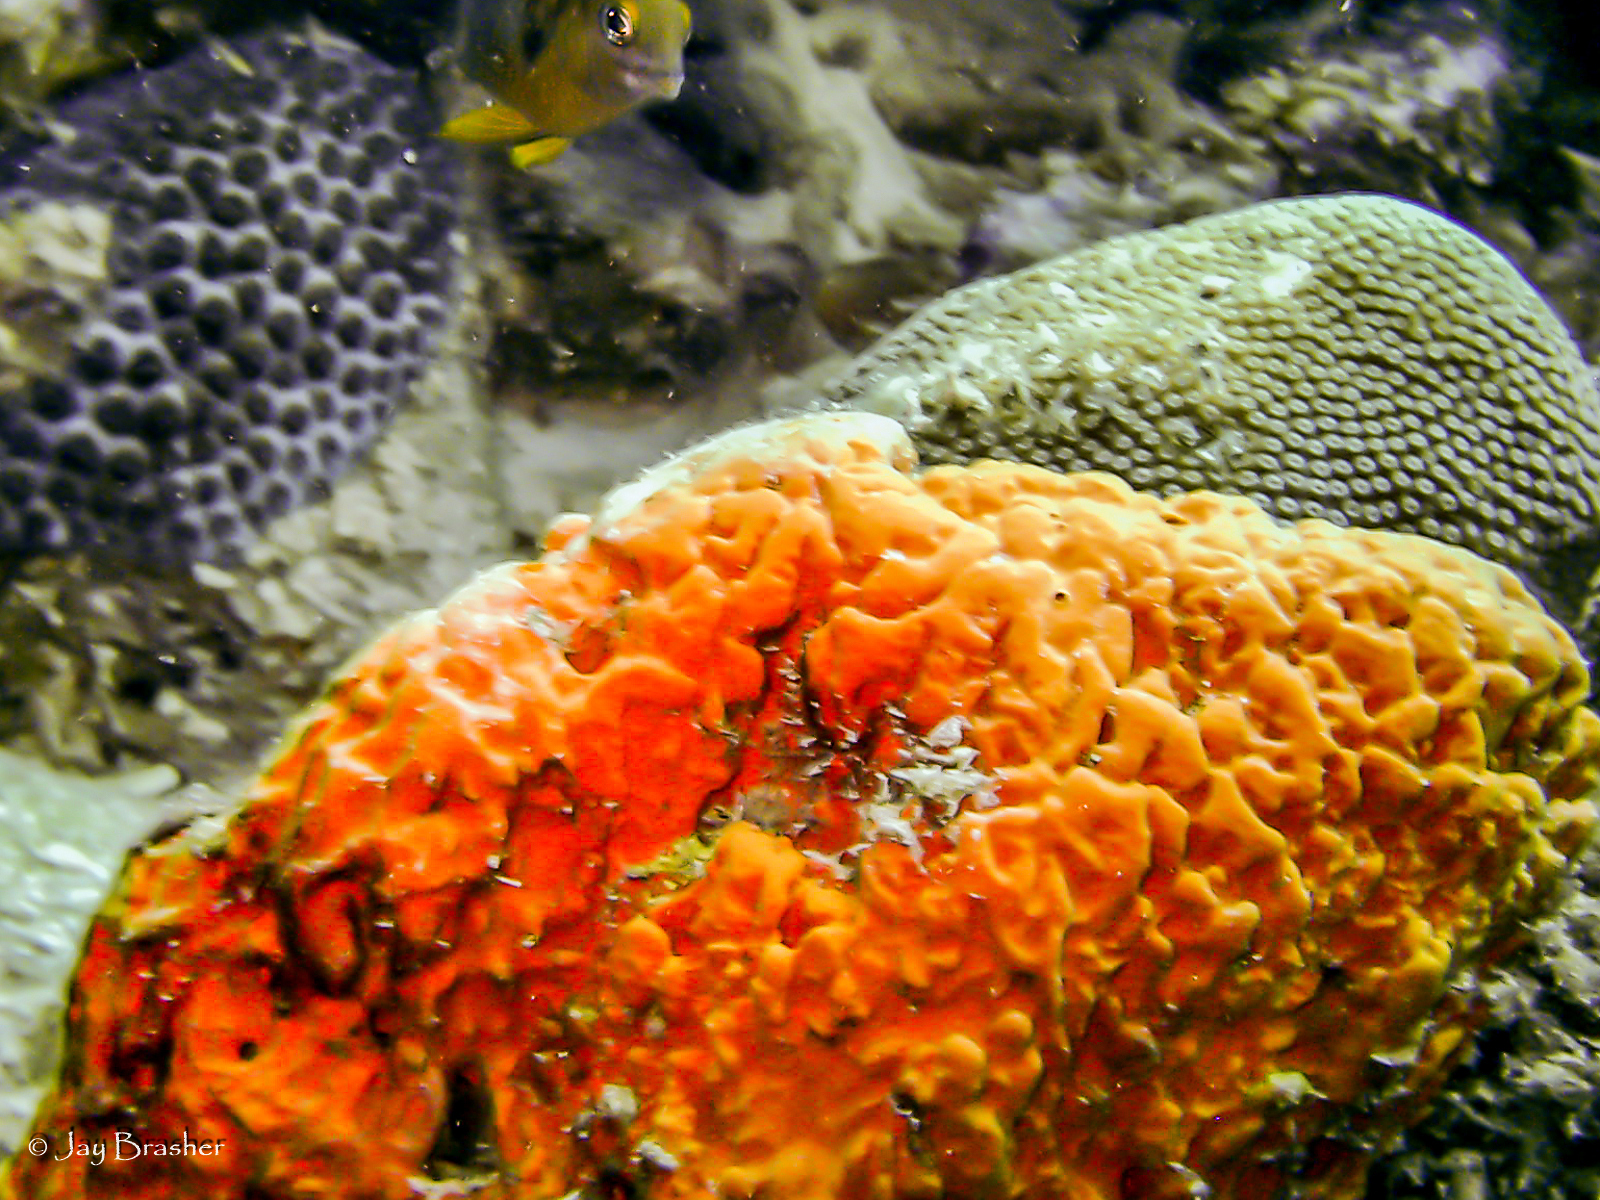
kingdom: Animalia
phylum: Porifera
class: Demospongiae
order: Agelasida
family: Agelasidae
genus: Agelas
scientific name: Agelas clathrodes
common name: Orange elephant ear sponge
